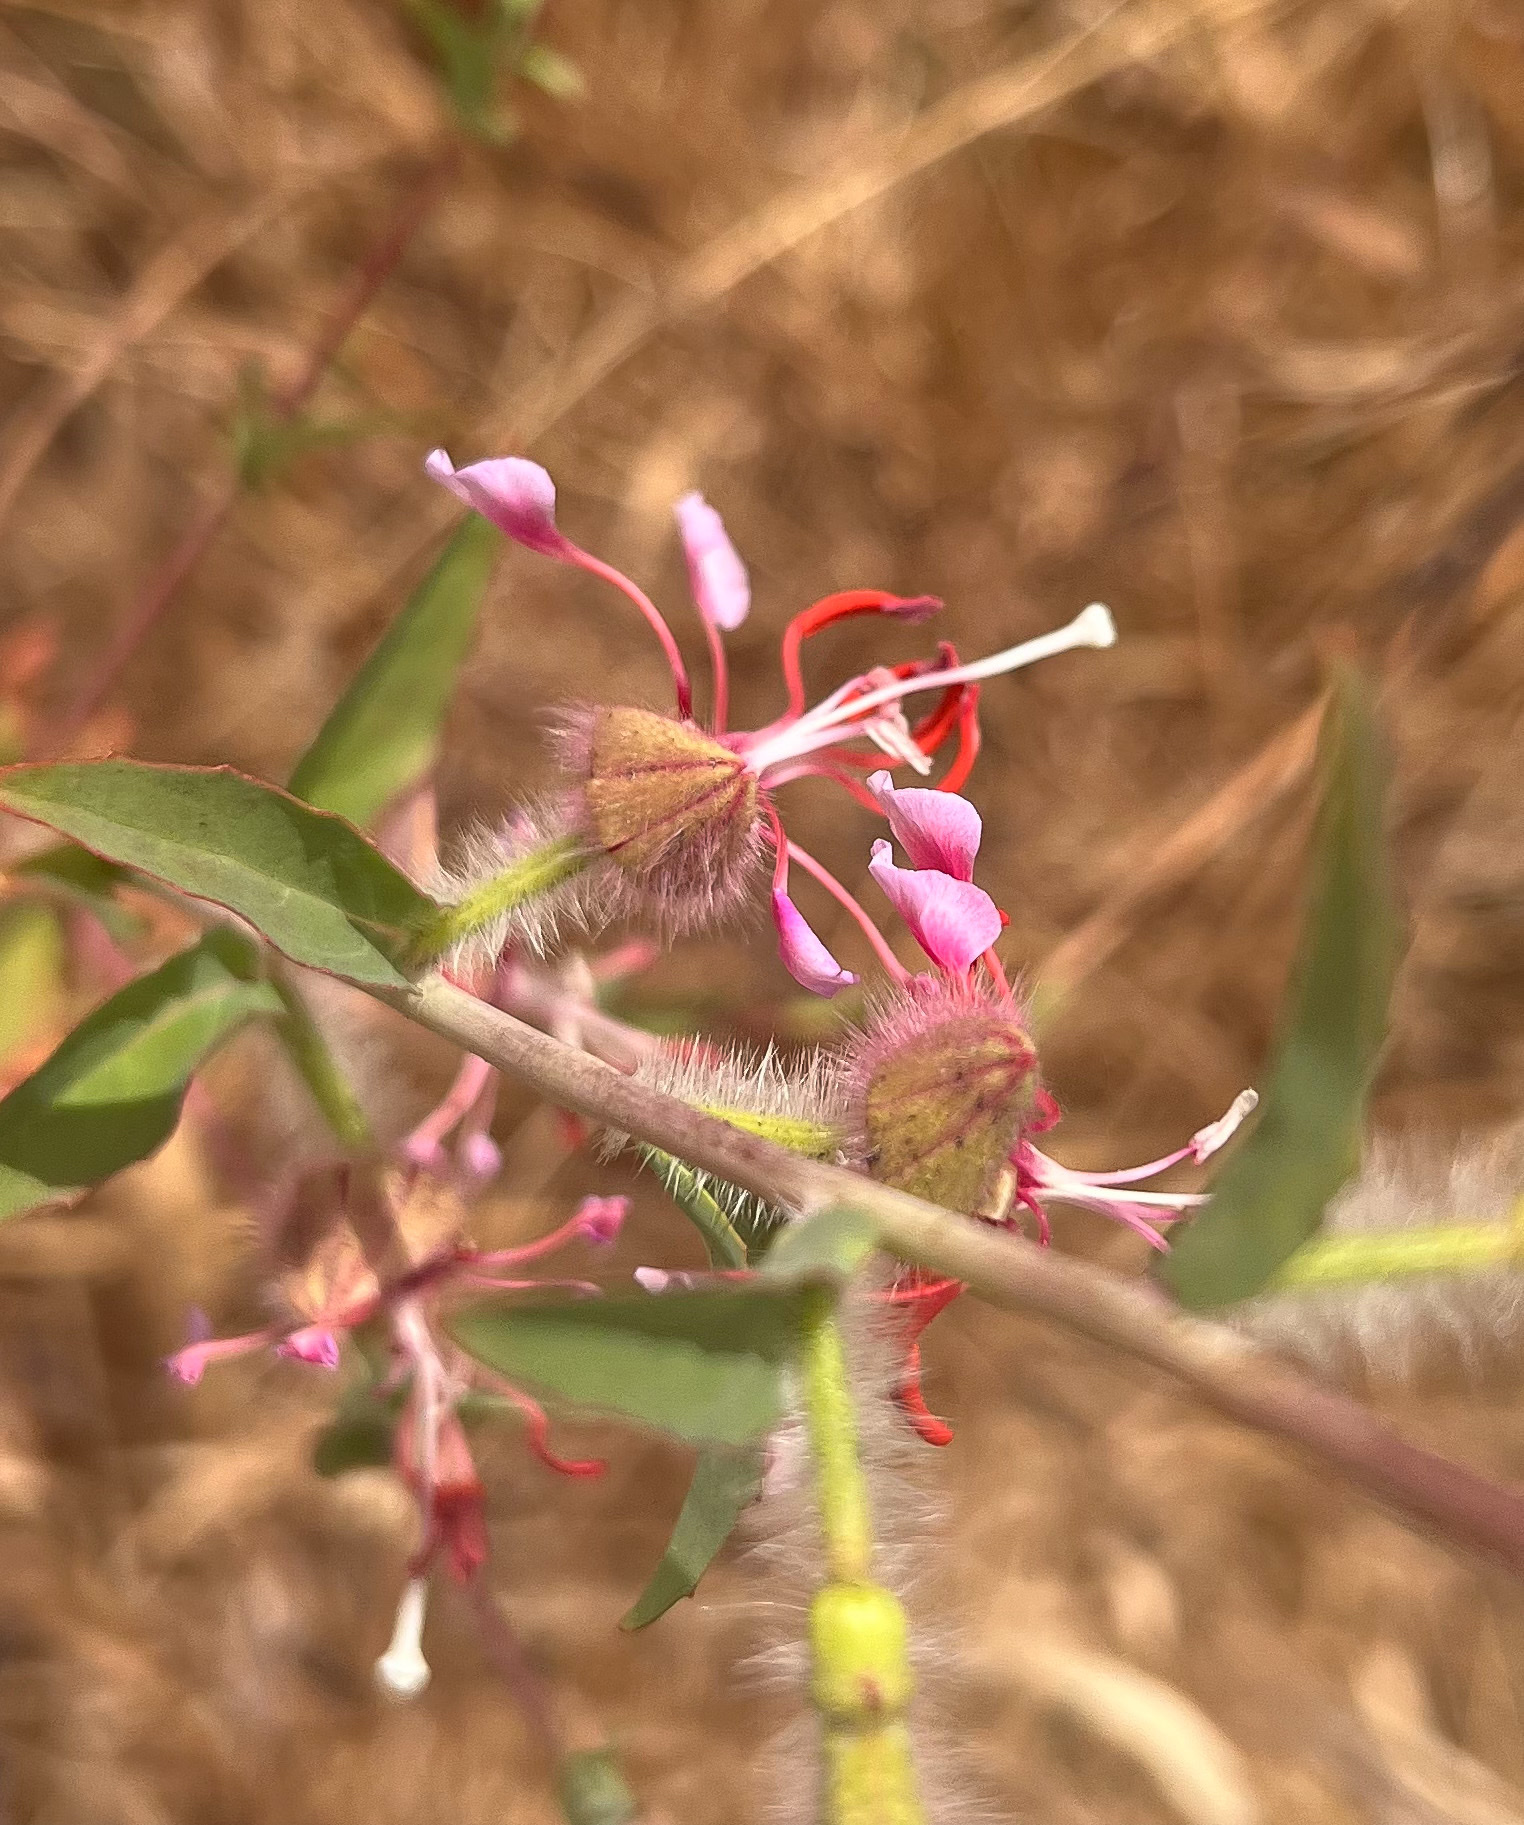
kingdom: Plantae
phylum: Tracheophyta
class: Magnoliopsida
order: Myrtales
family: Onagraceae
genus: Clarkia
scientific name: Clarkia unguiculata
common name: Clarkia
